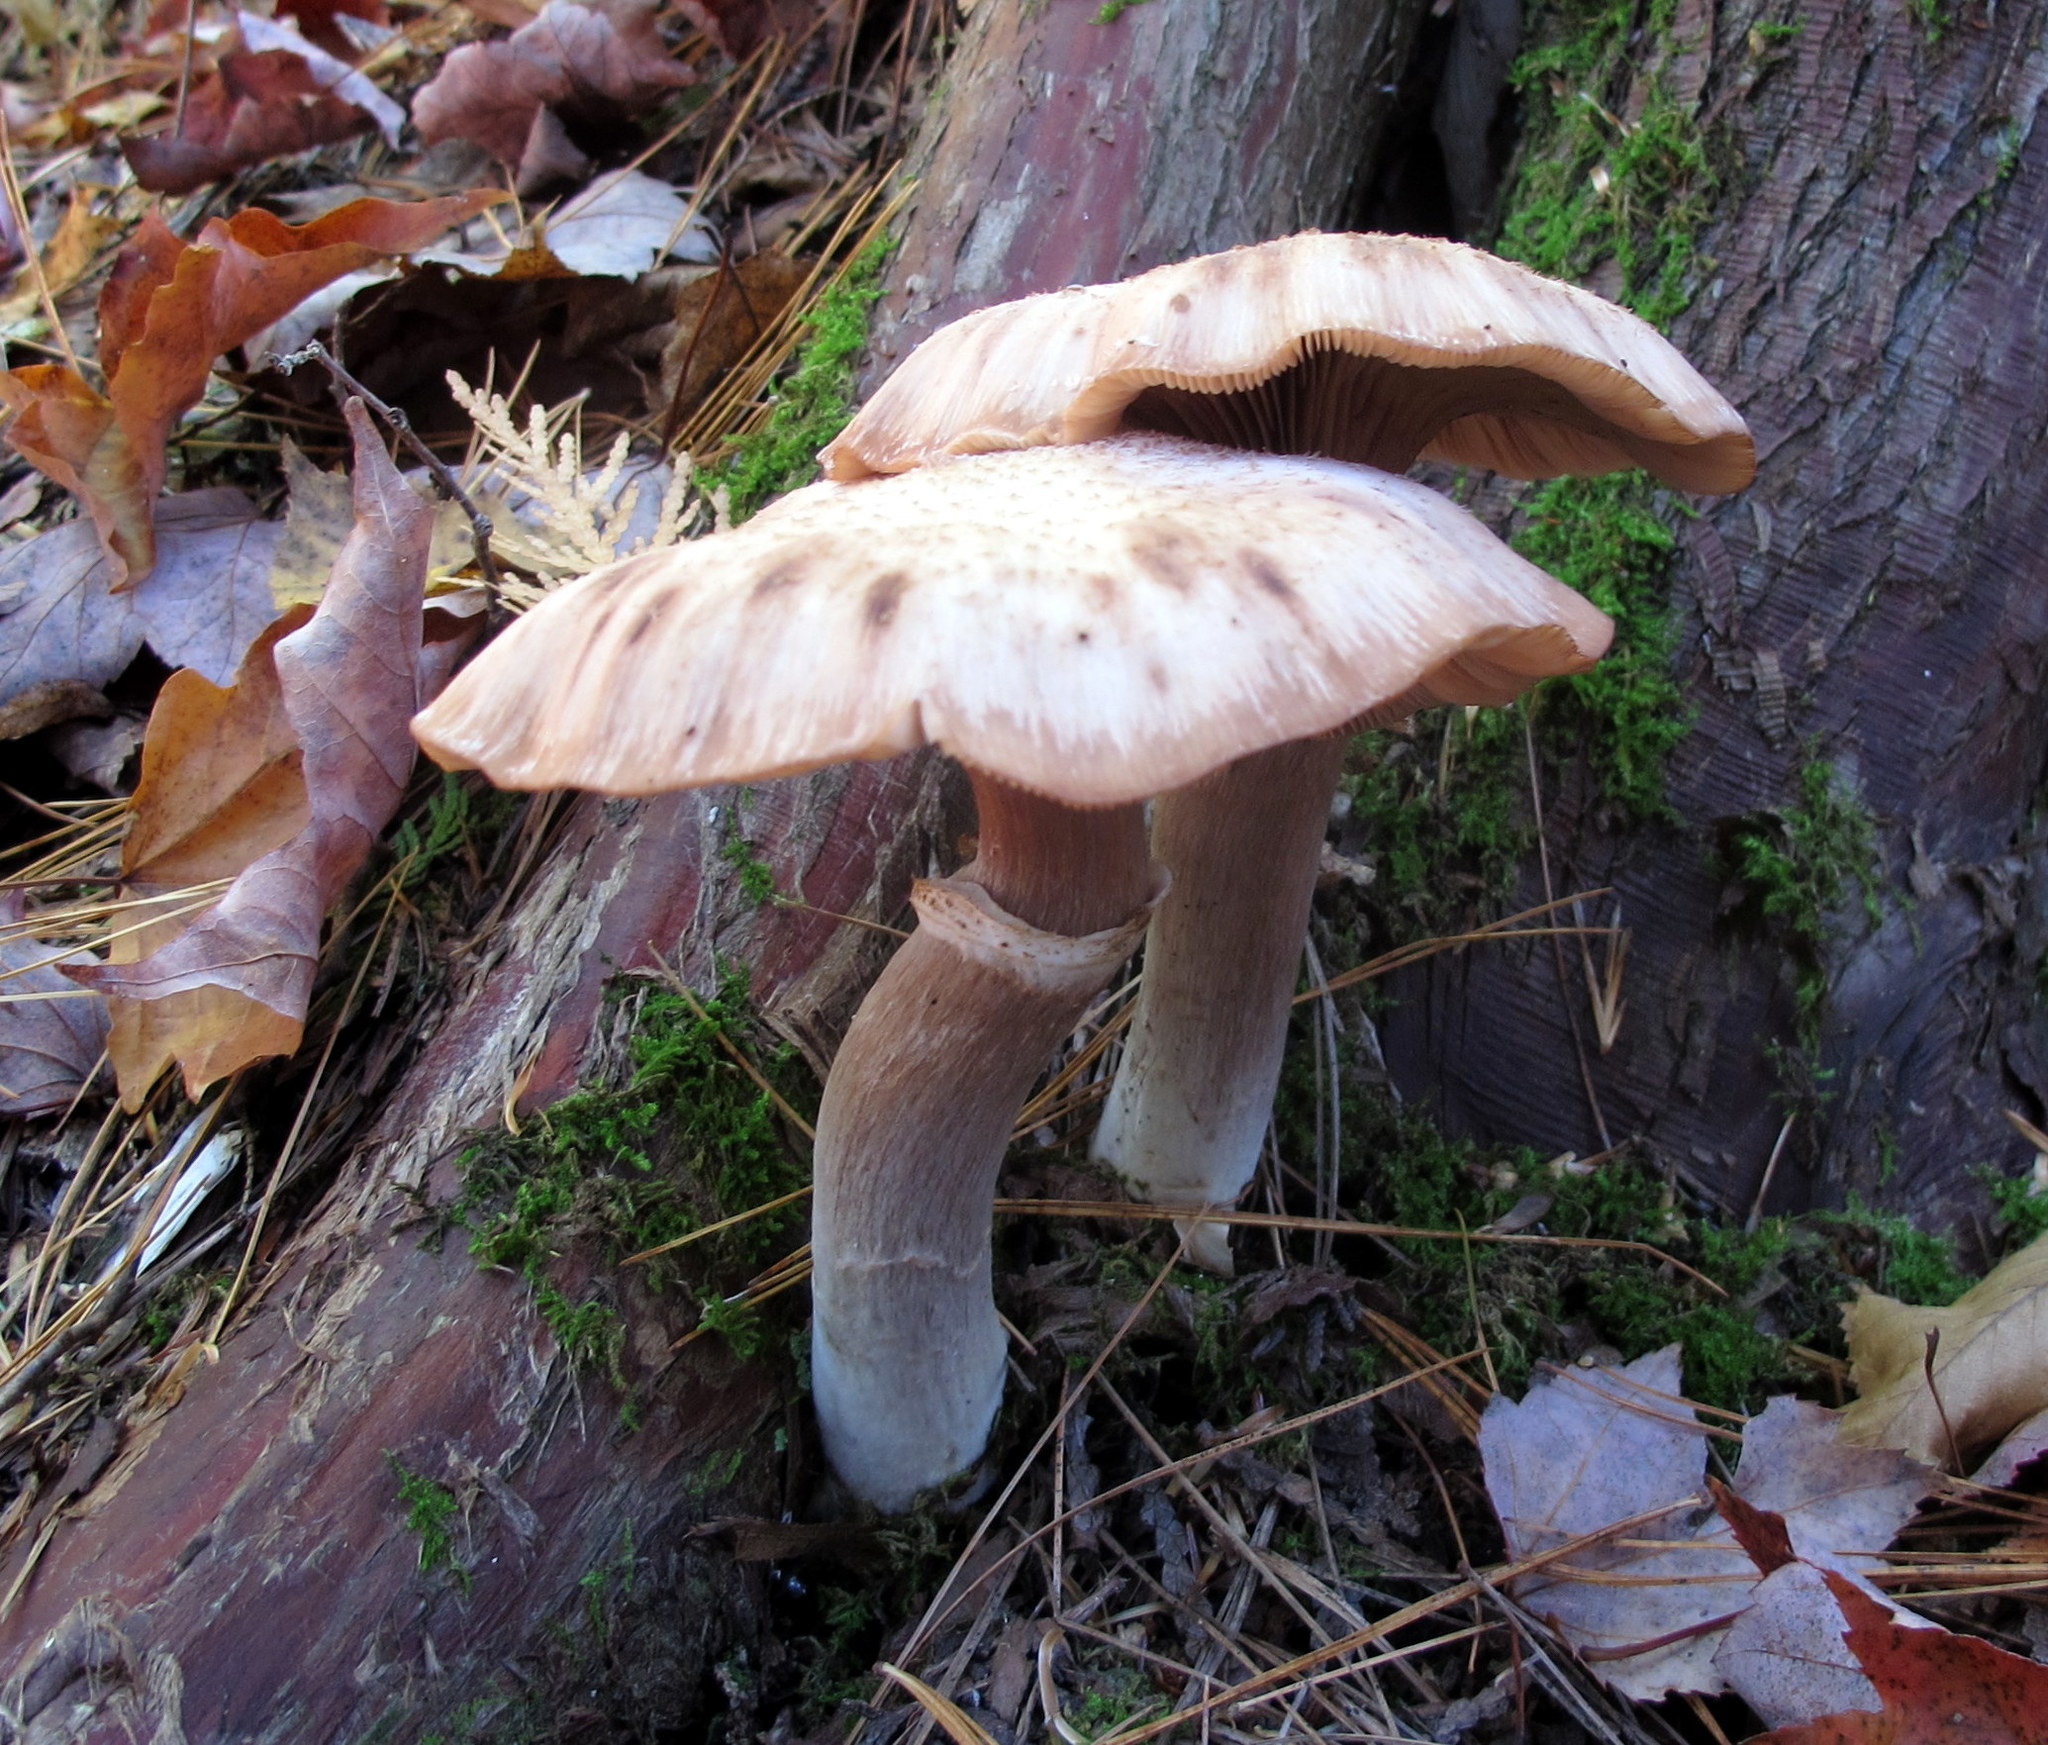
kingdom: Fungi
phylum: Basidiomycota
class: Agaricomycetes
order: Agaricales
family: Physalacriaceae
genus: Armillaria
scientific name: Armillaria ostoyae
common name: Dark honey fungus
